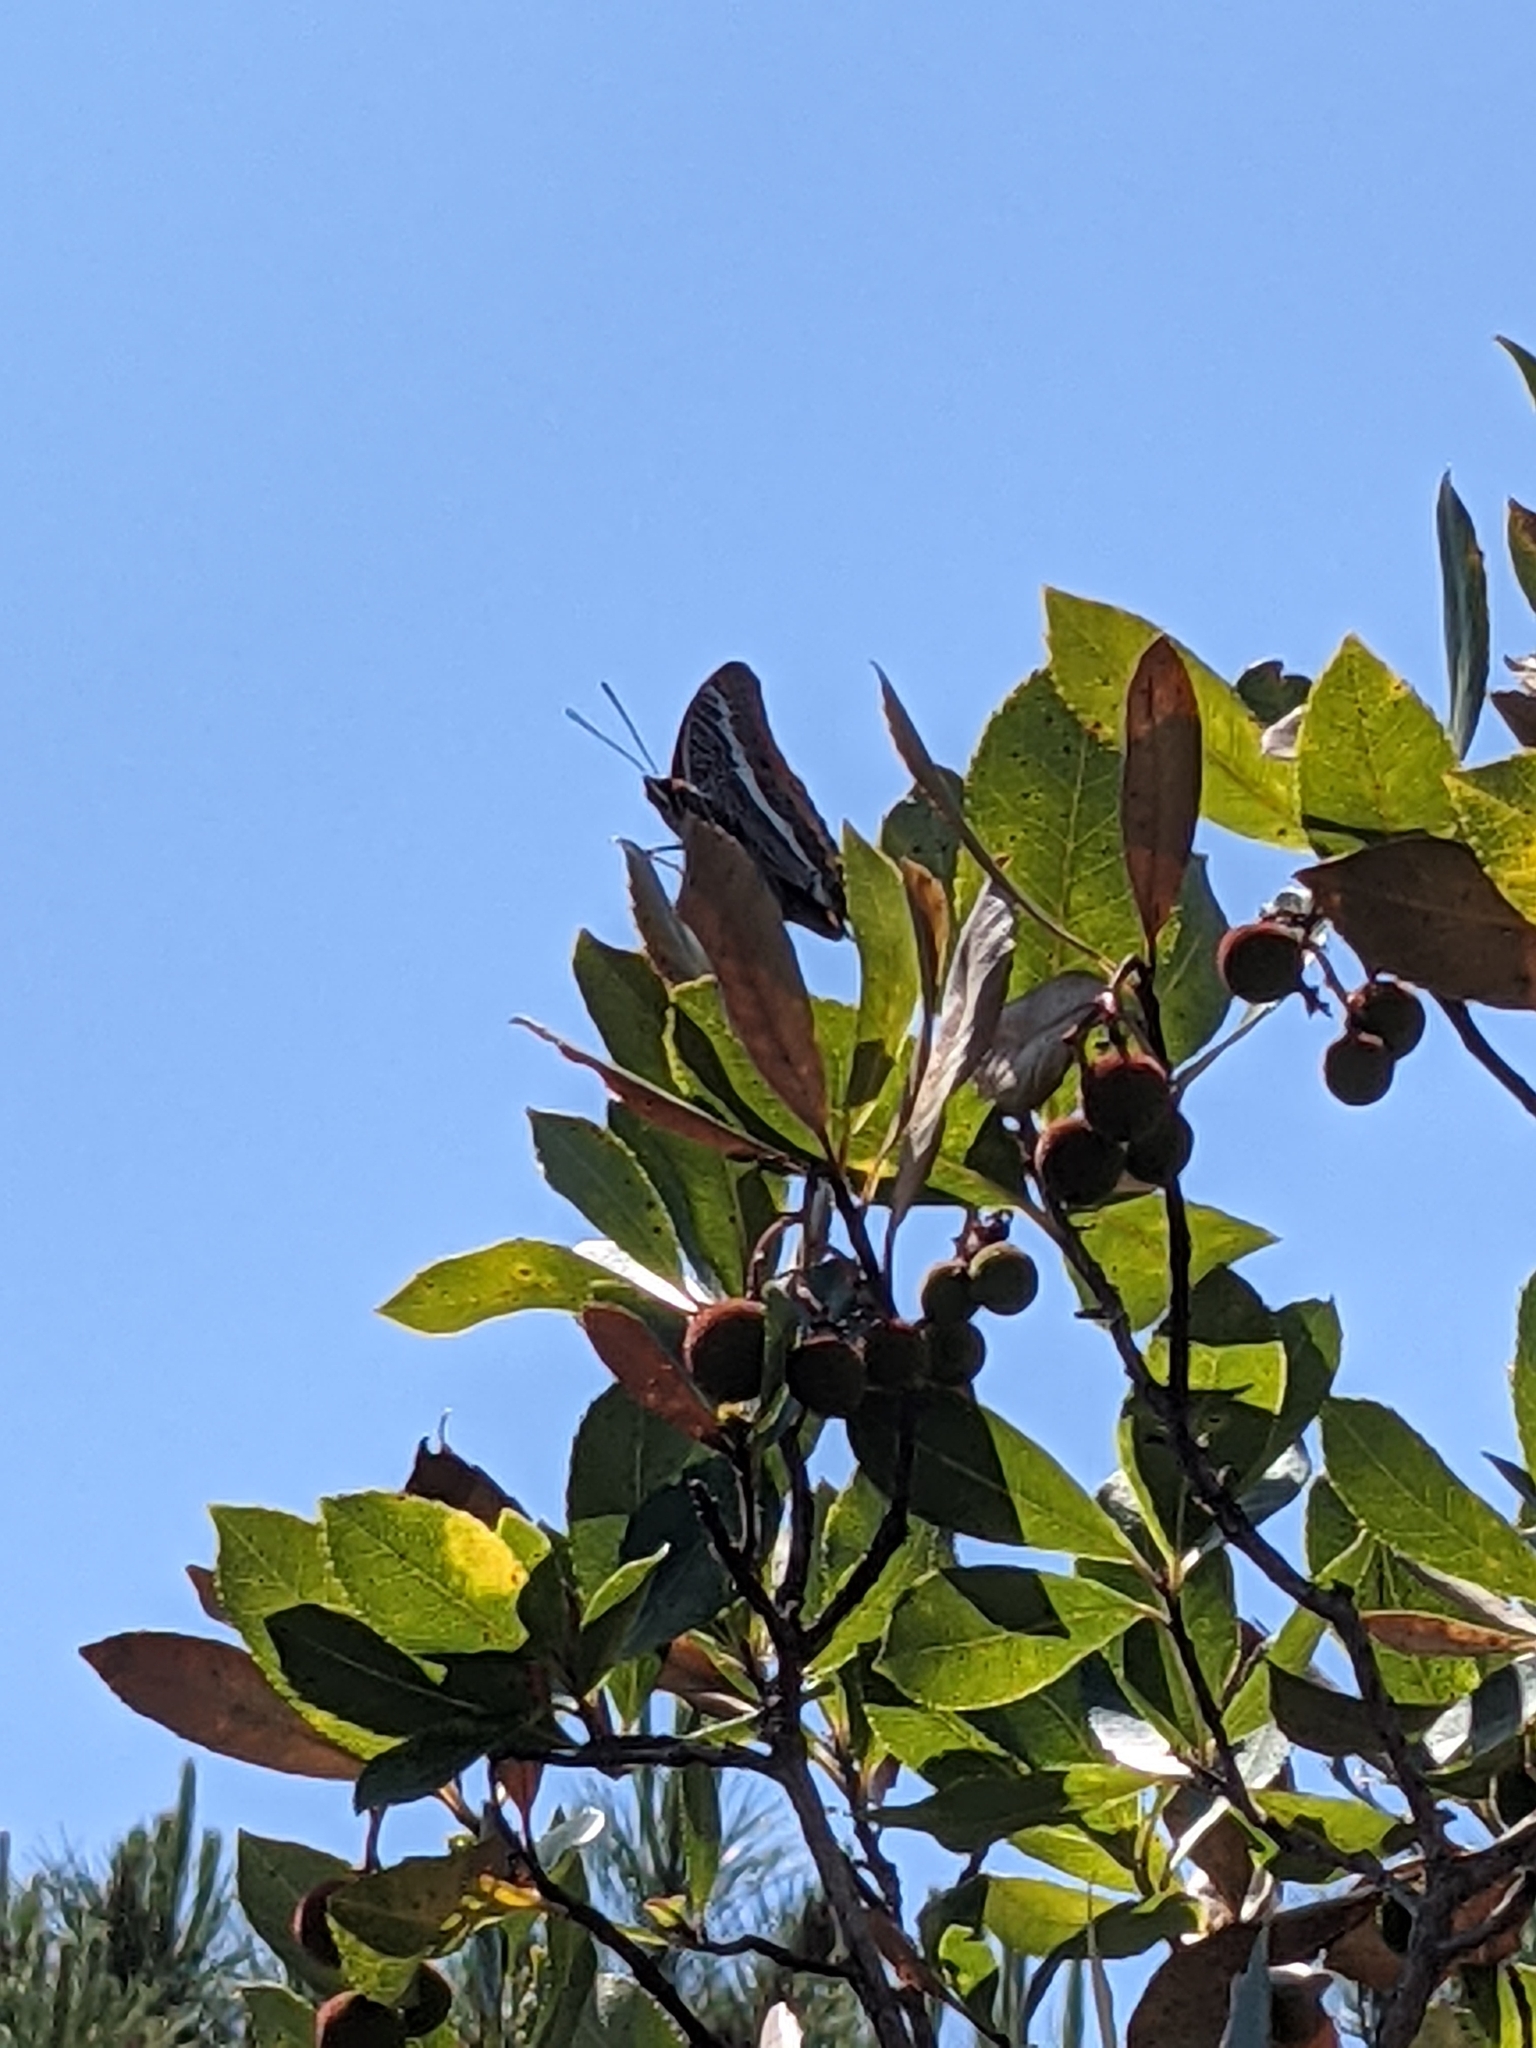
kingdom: Animalia
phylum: Arthropoda
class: Insecta
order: Lepidoptera
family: Nymphalidae
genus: Charaxes
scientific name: Charaxes jasius
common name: Two tailed pasha
